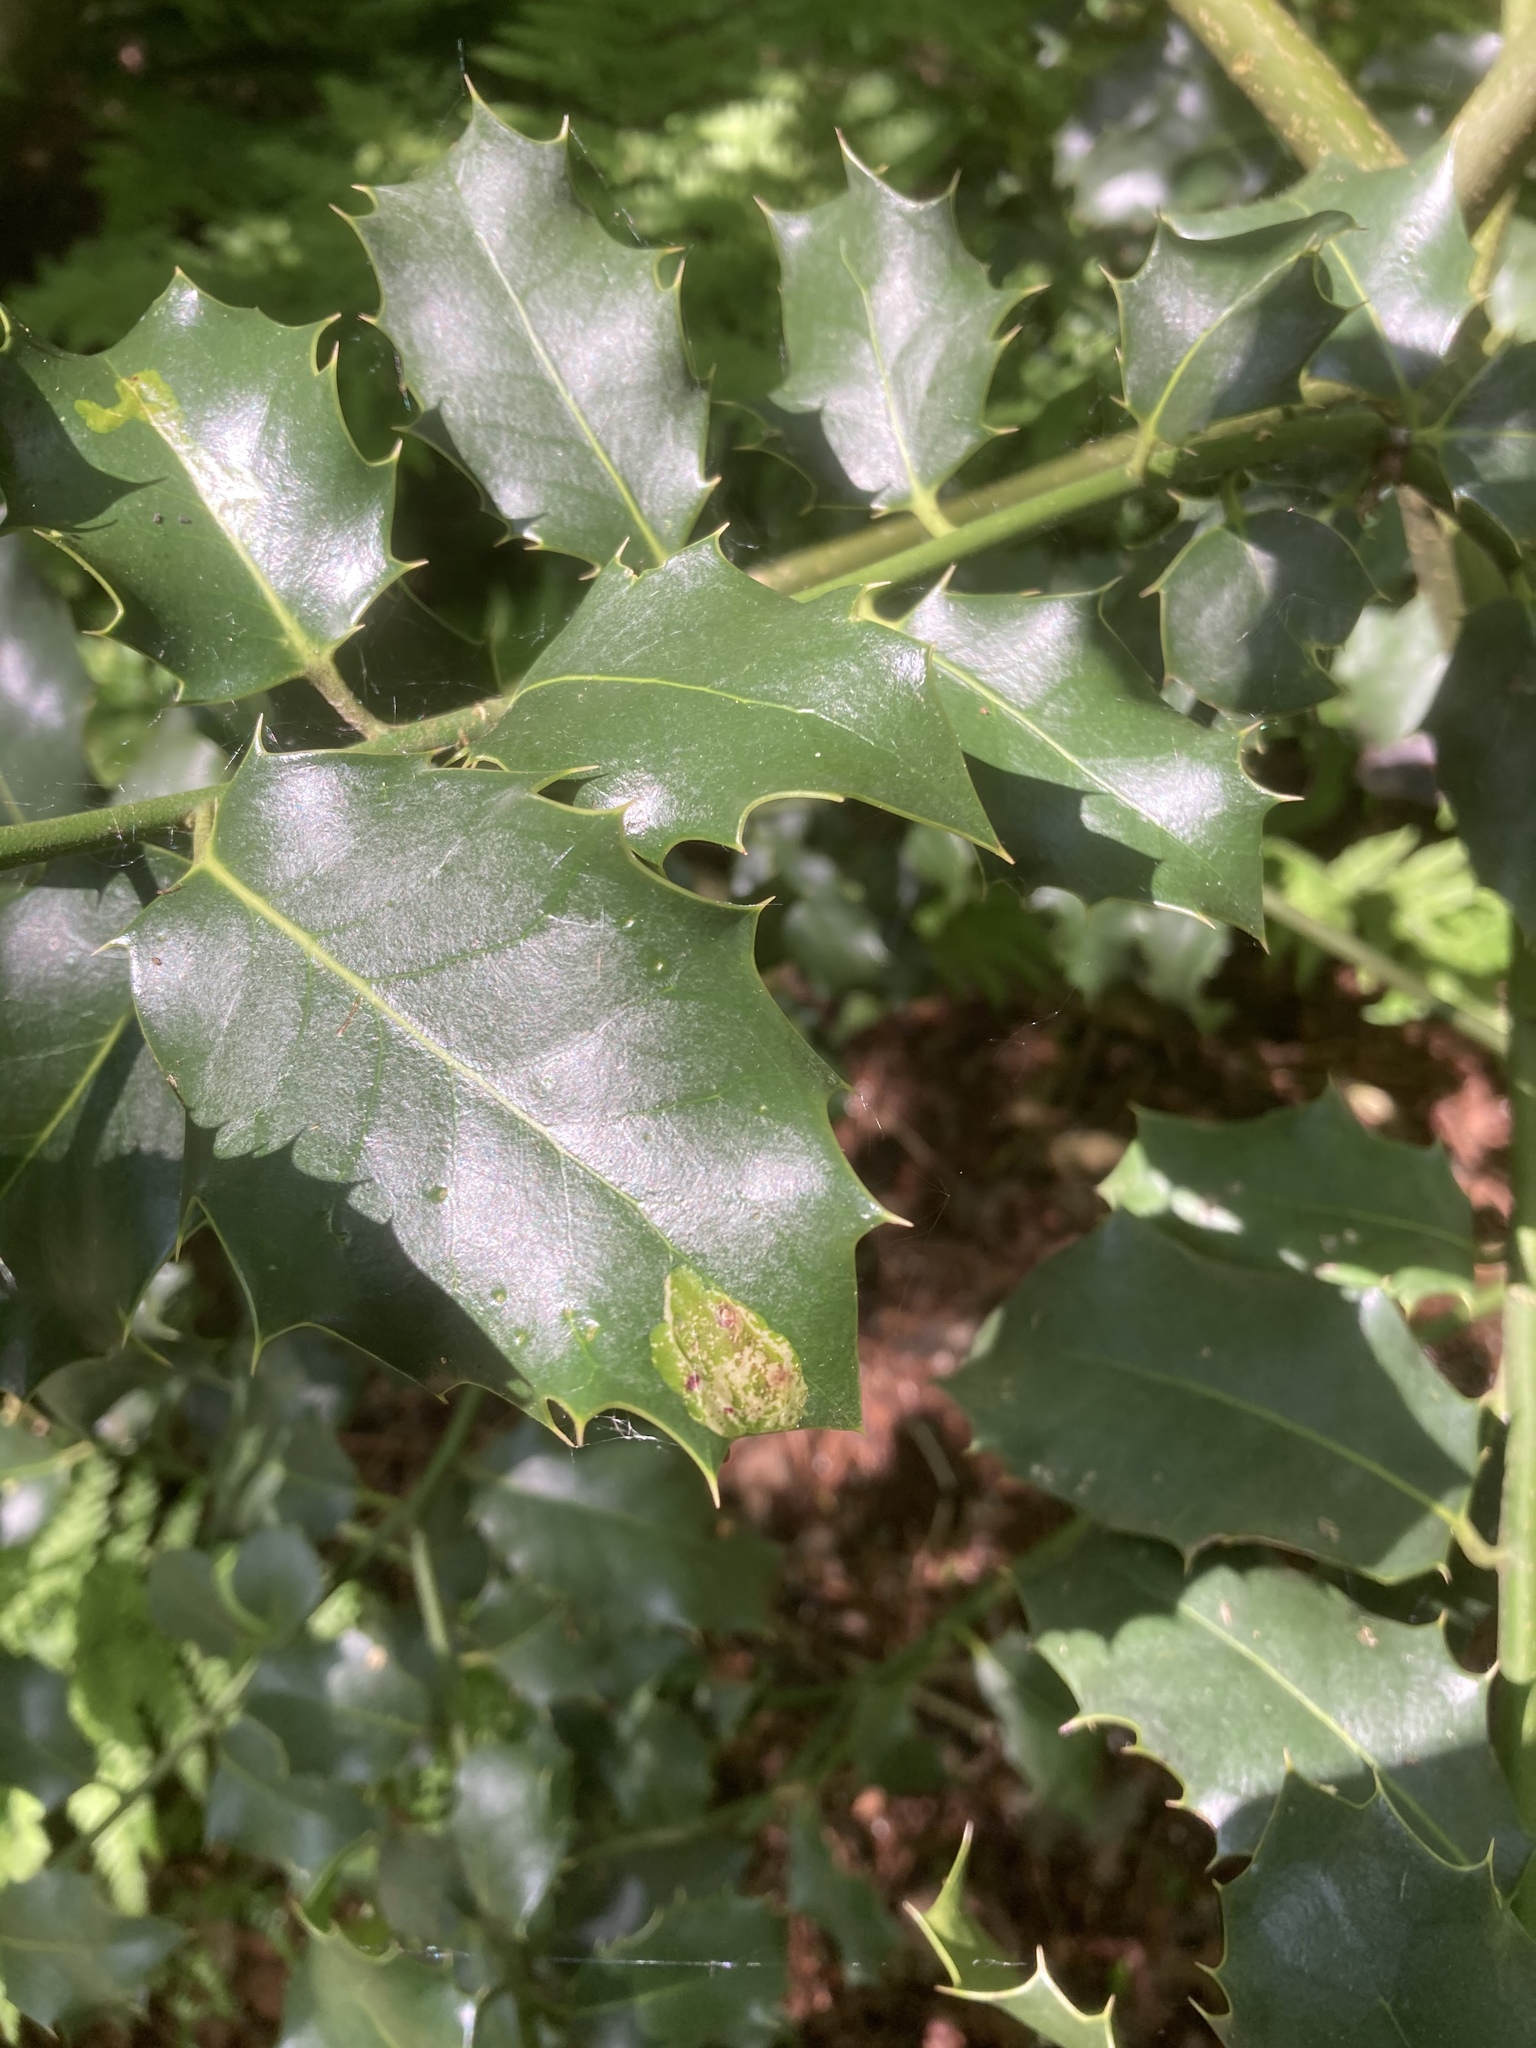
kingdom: Plantae
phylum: Tracheophyta
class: Magnoliopsida
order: Aquifoliales
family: Aquifoliaceae
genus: Ilex
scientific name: Ilex aquifolium
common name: English holly
